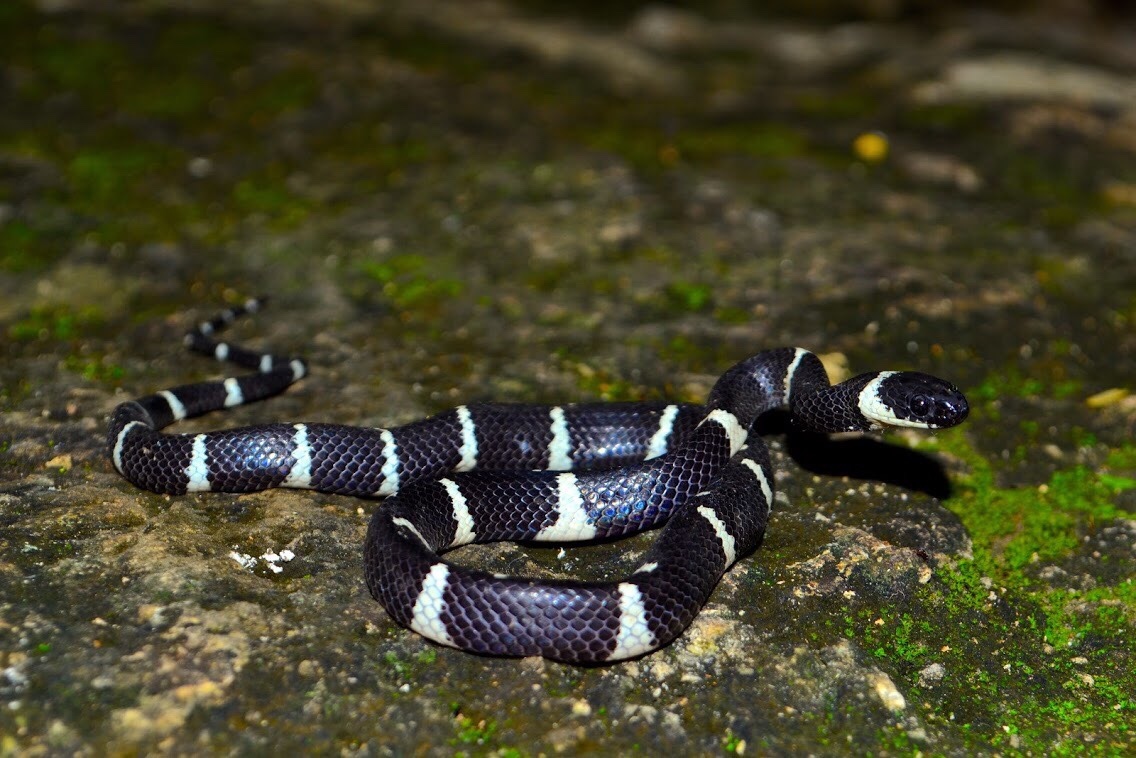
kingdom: Animalia
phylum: Chordata
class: Squamata
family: Colubridae
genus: Tropidodipsas
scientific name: Tropidodipsas fasciata
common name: Banded snail sucker
